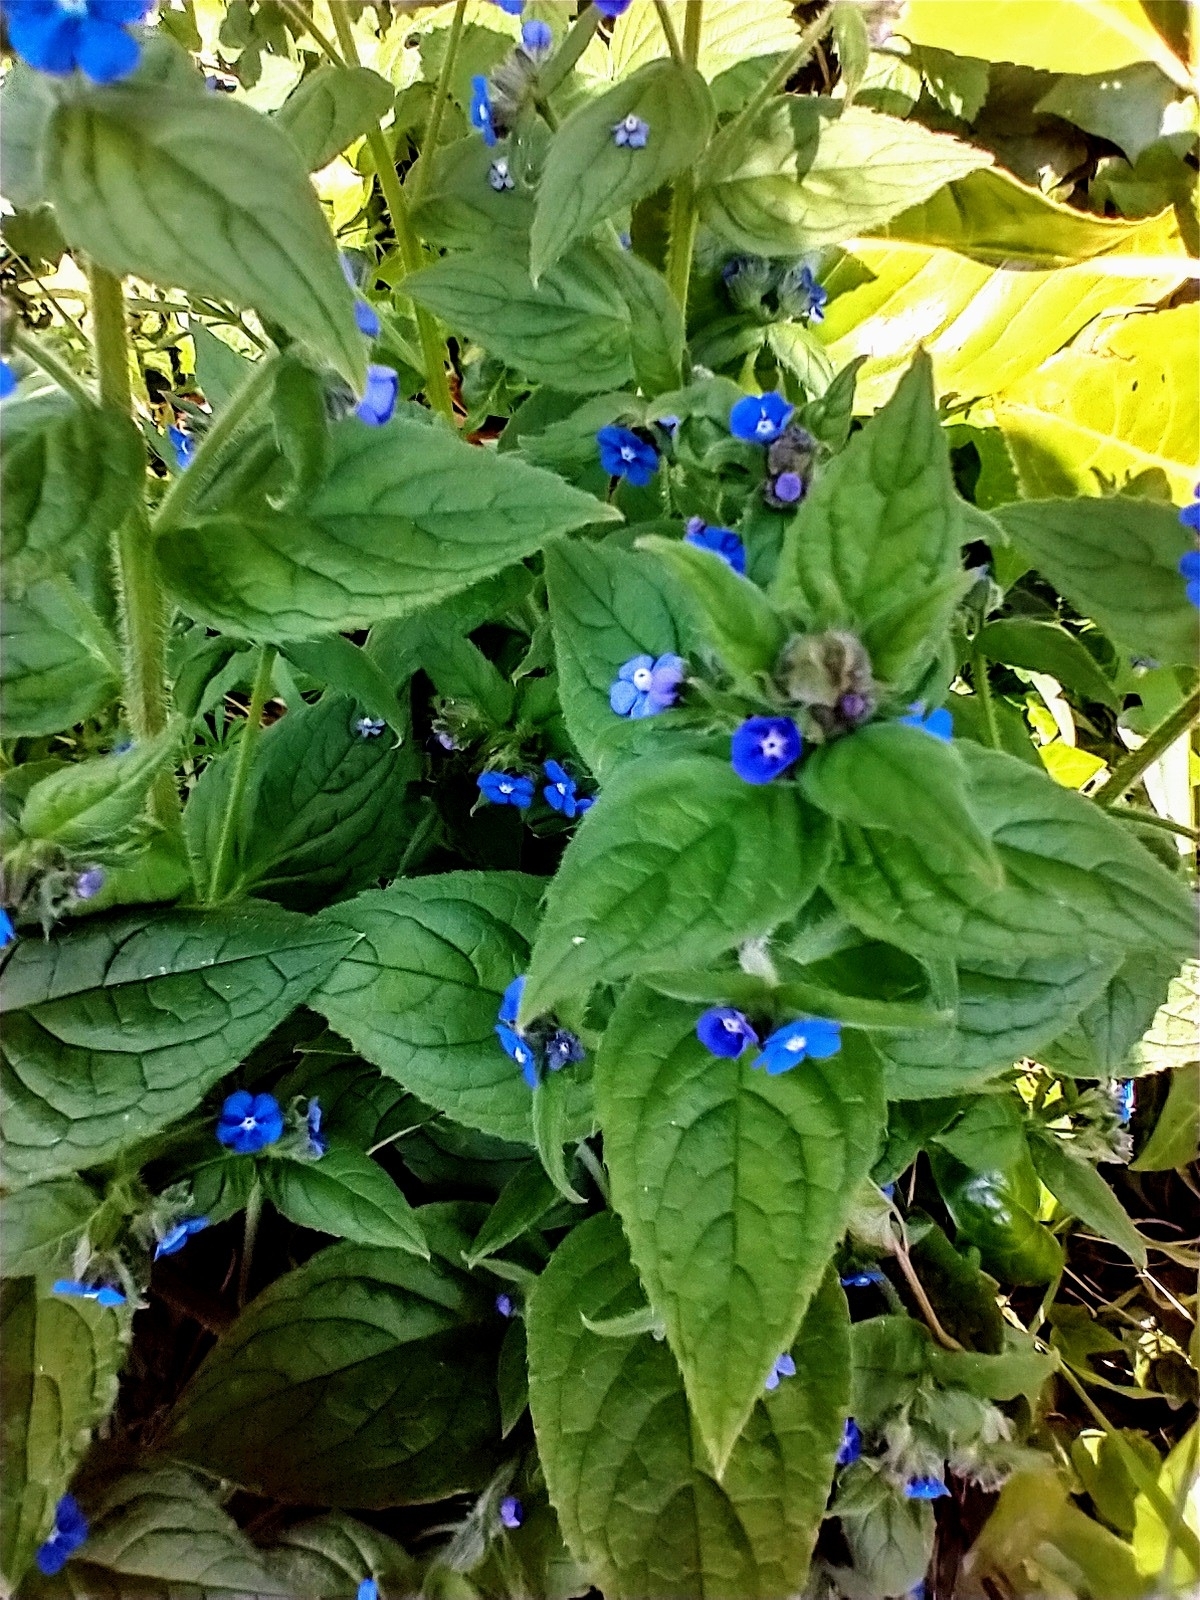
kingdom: Plantae
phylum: Tracheophyta
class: Magnoliopsida
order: Boraginales
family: Boraginaceae
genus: Pentaglottis
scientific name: Pentaglottis sempervirens
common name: Green alkanet
